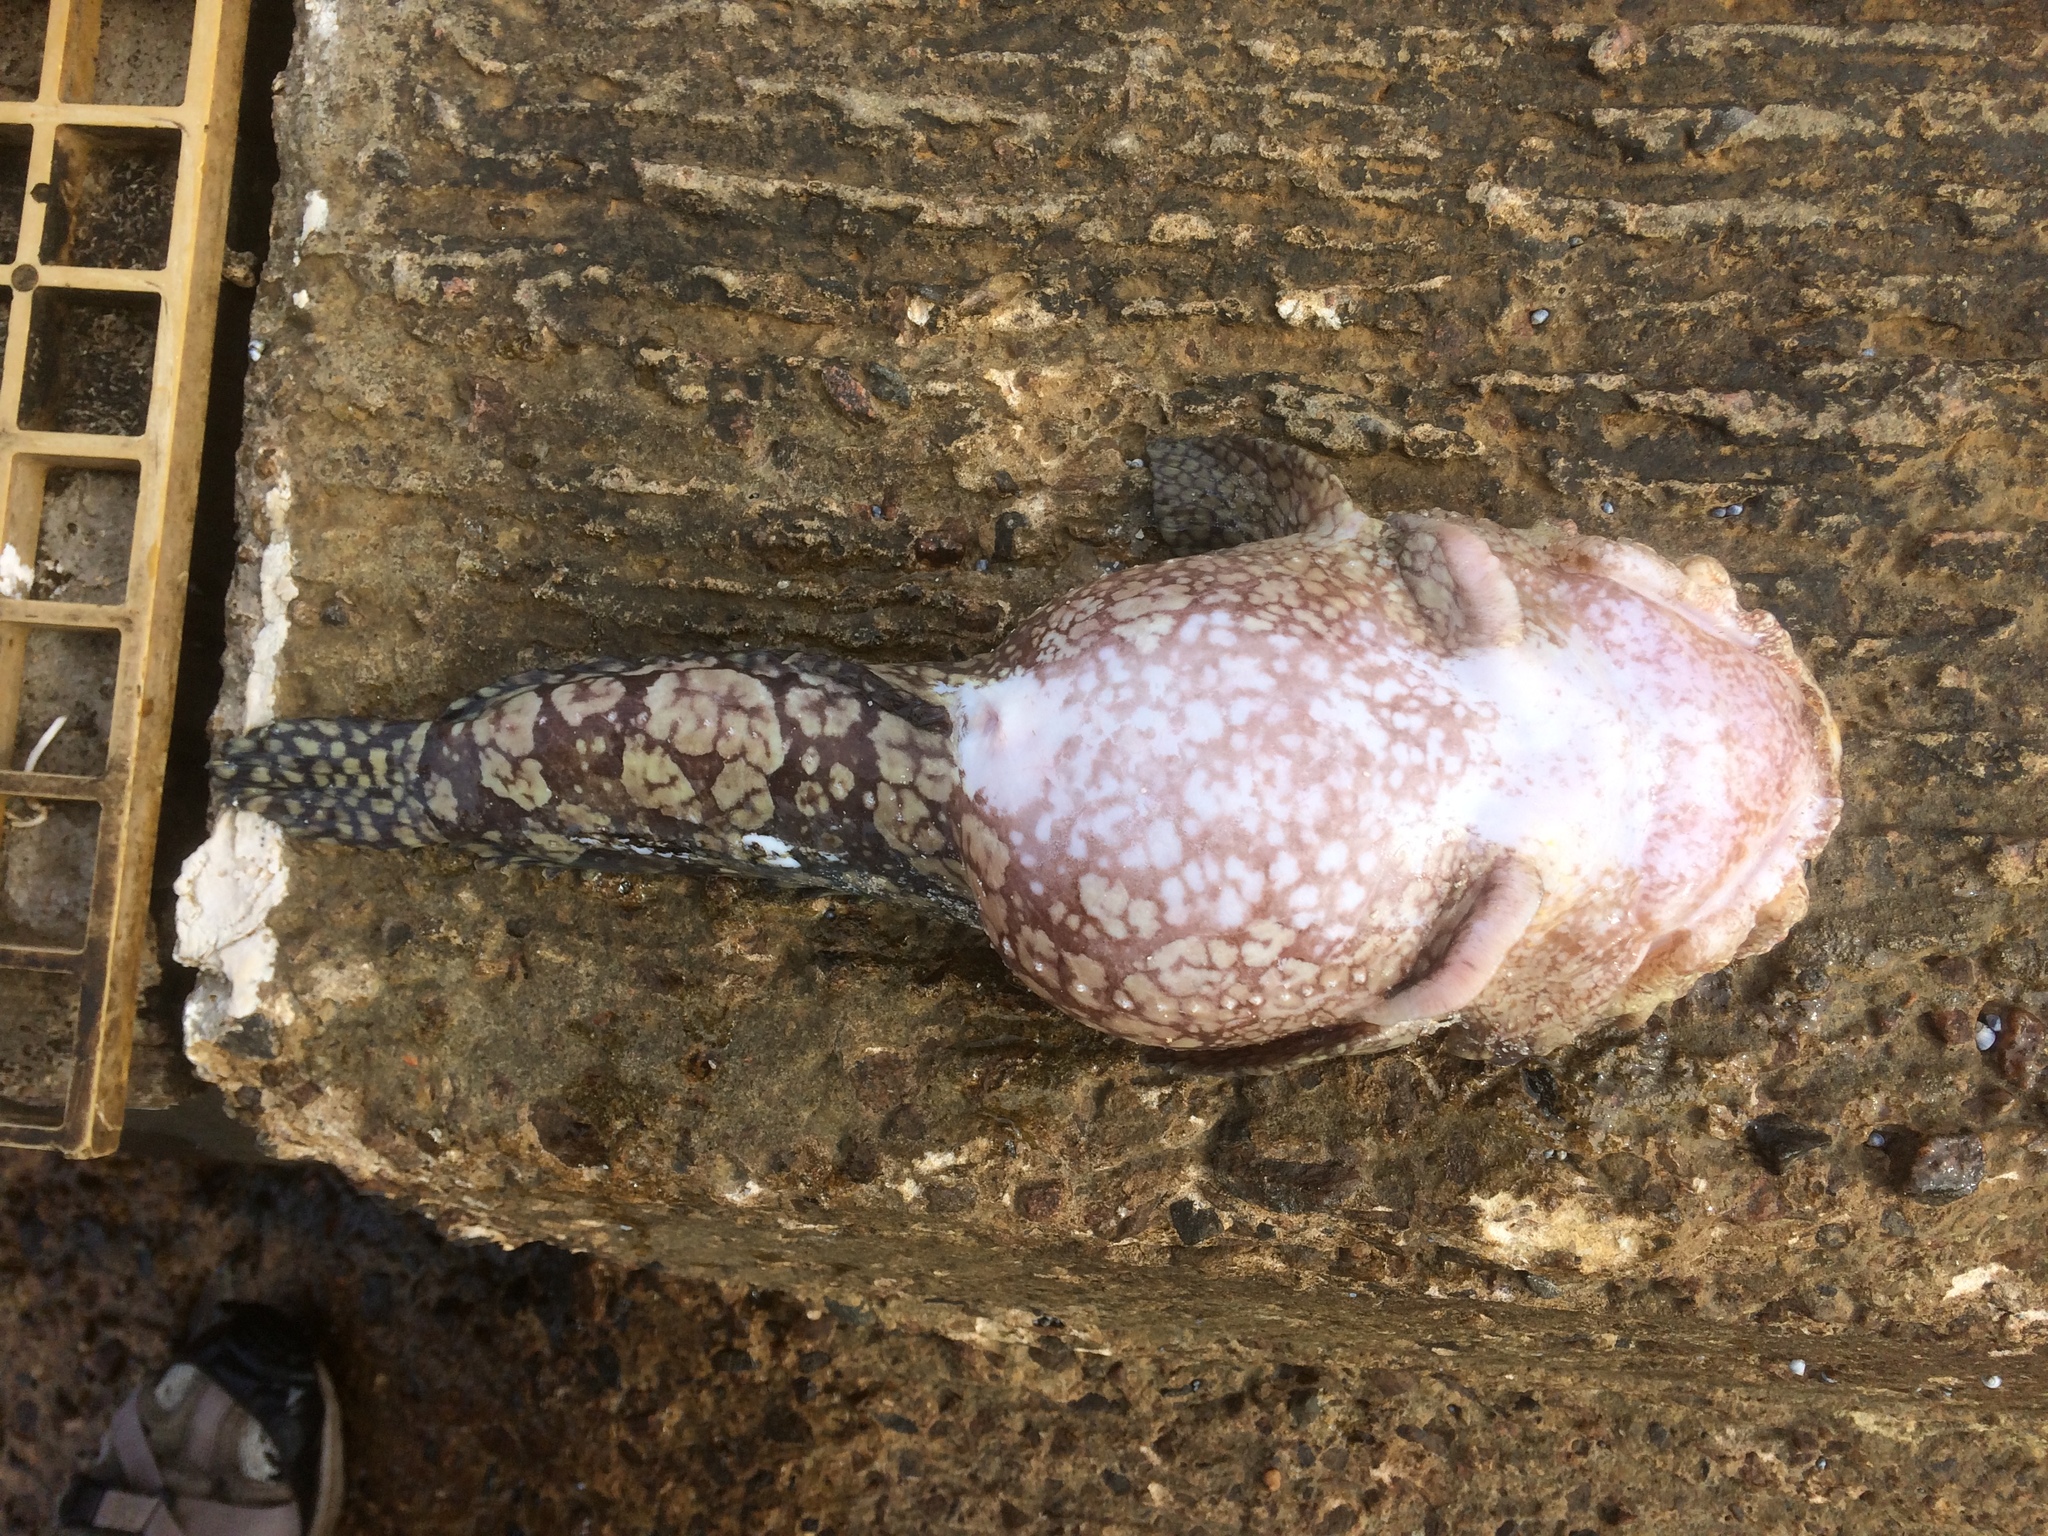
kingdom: Animalia
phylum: Chordata
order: Batrachoidiformes
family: Batrachoididae
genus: Batrachomoeus
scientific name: Batrachomoeus rubricephalus
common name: Pinkhead frogfish
